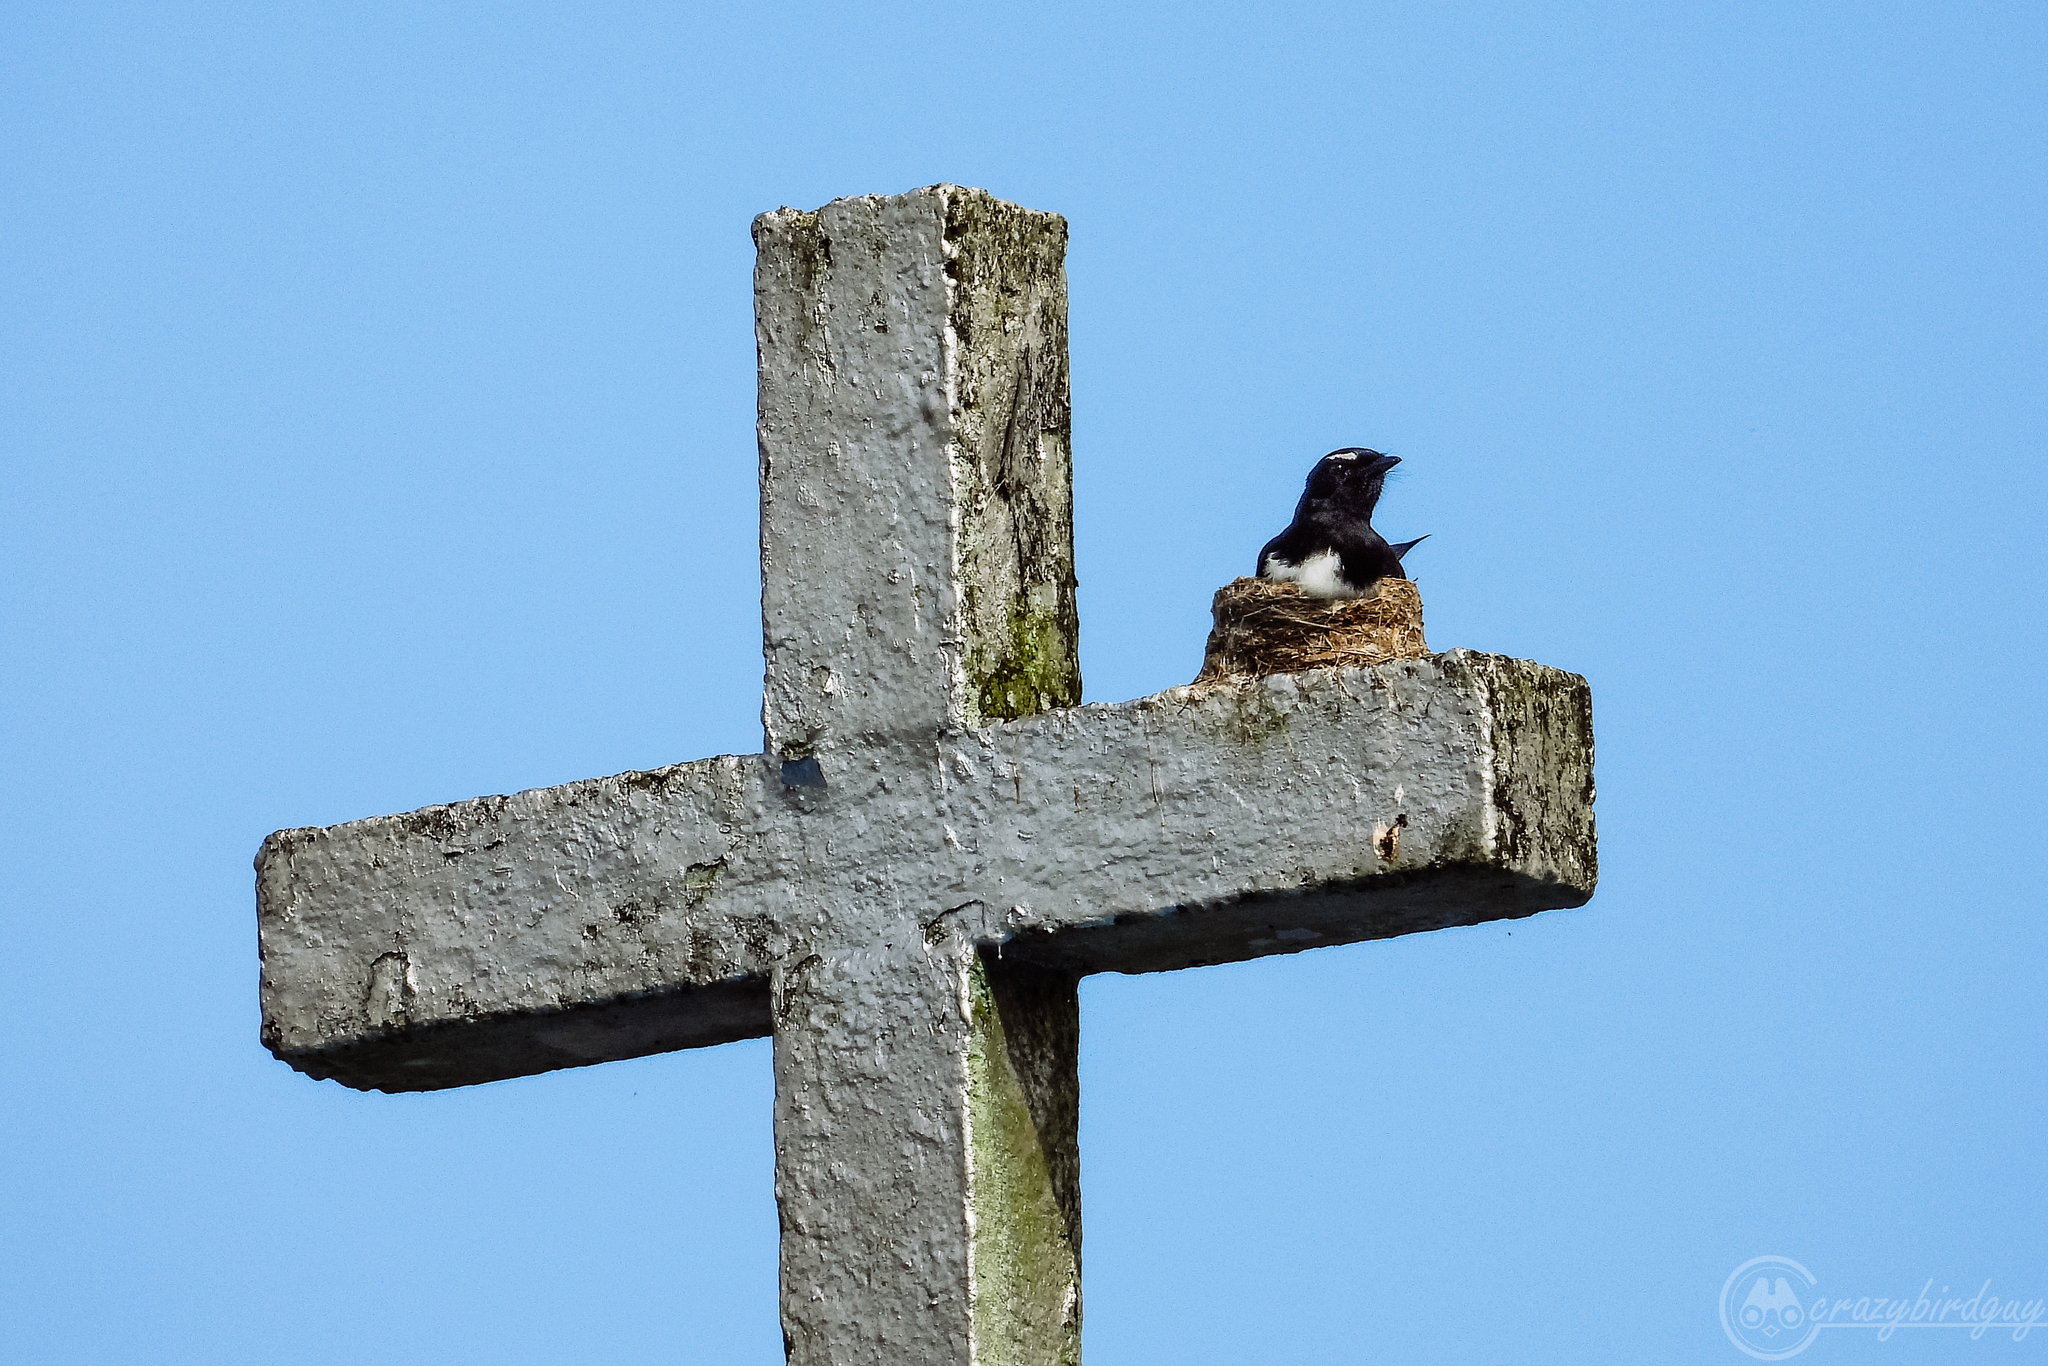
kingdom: Animalia
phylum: Chordata
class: Aves
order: Passeriformes
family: Rhipiduridae
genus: Rhipidura
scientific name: Rhipidura leucophrys
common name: Willie wagtail
